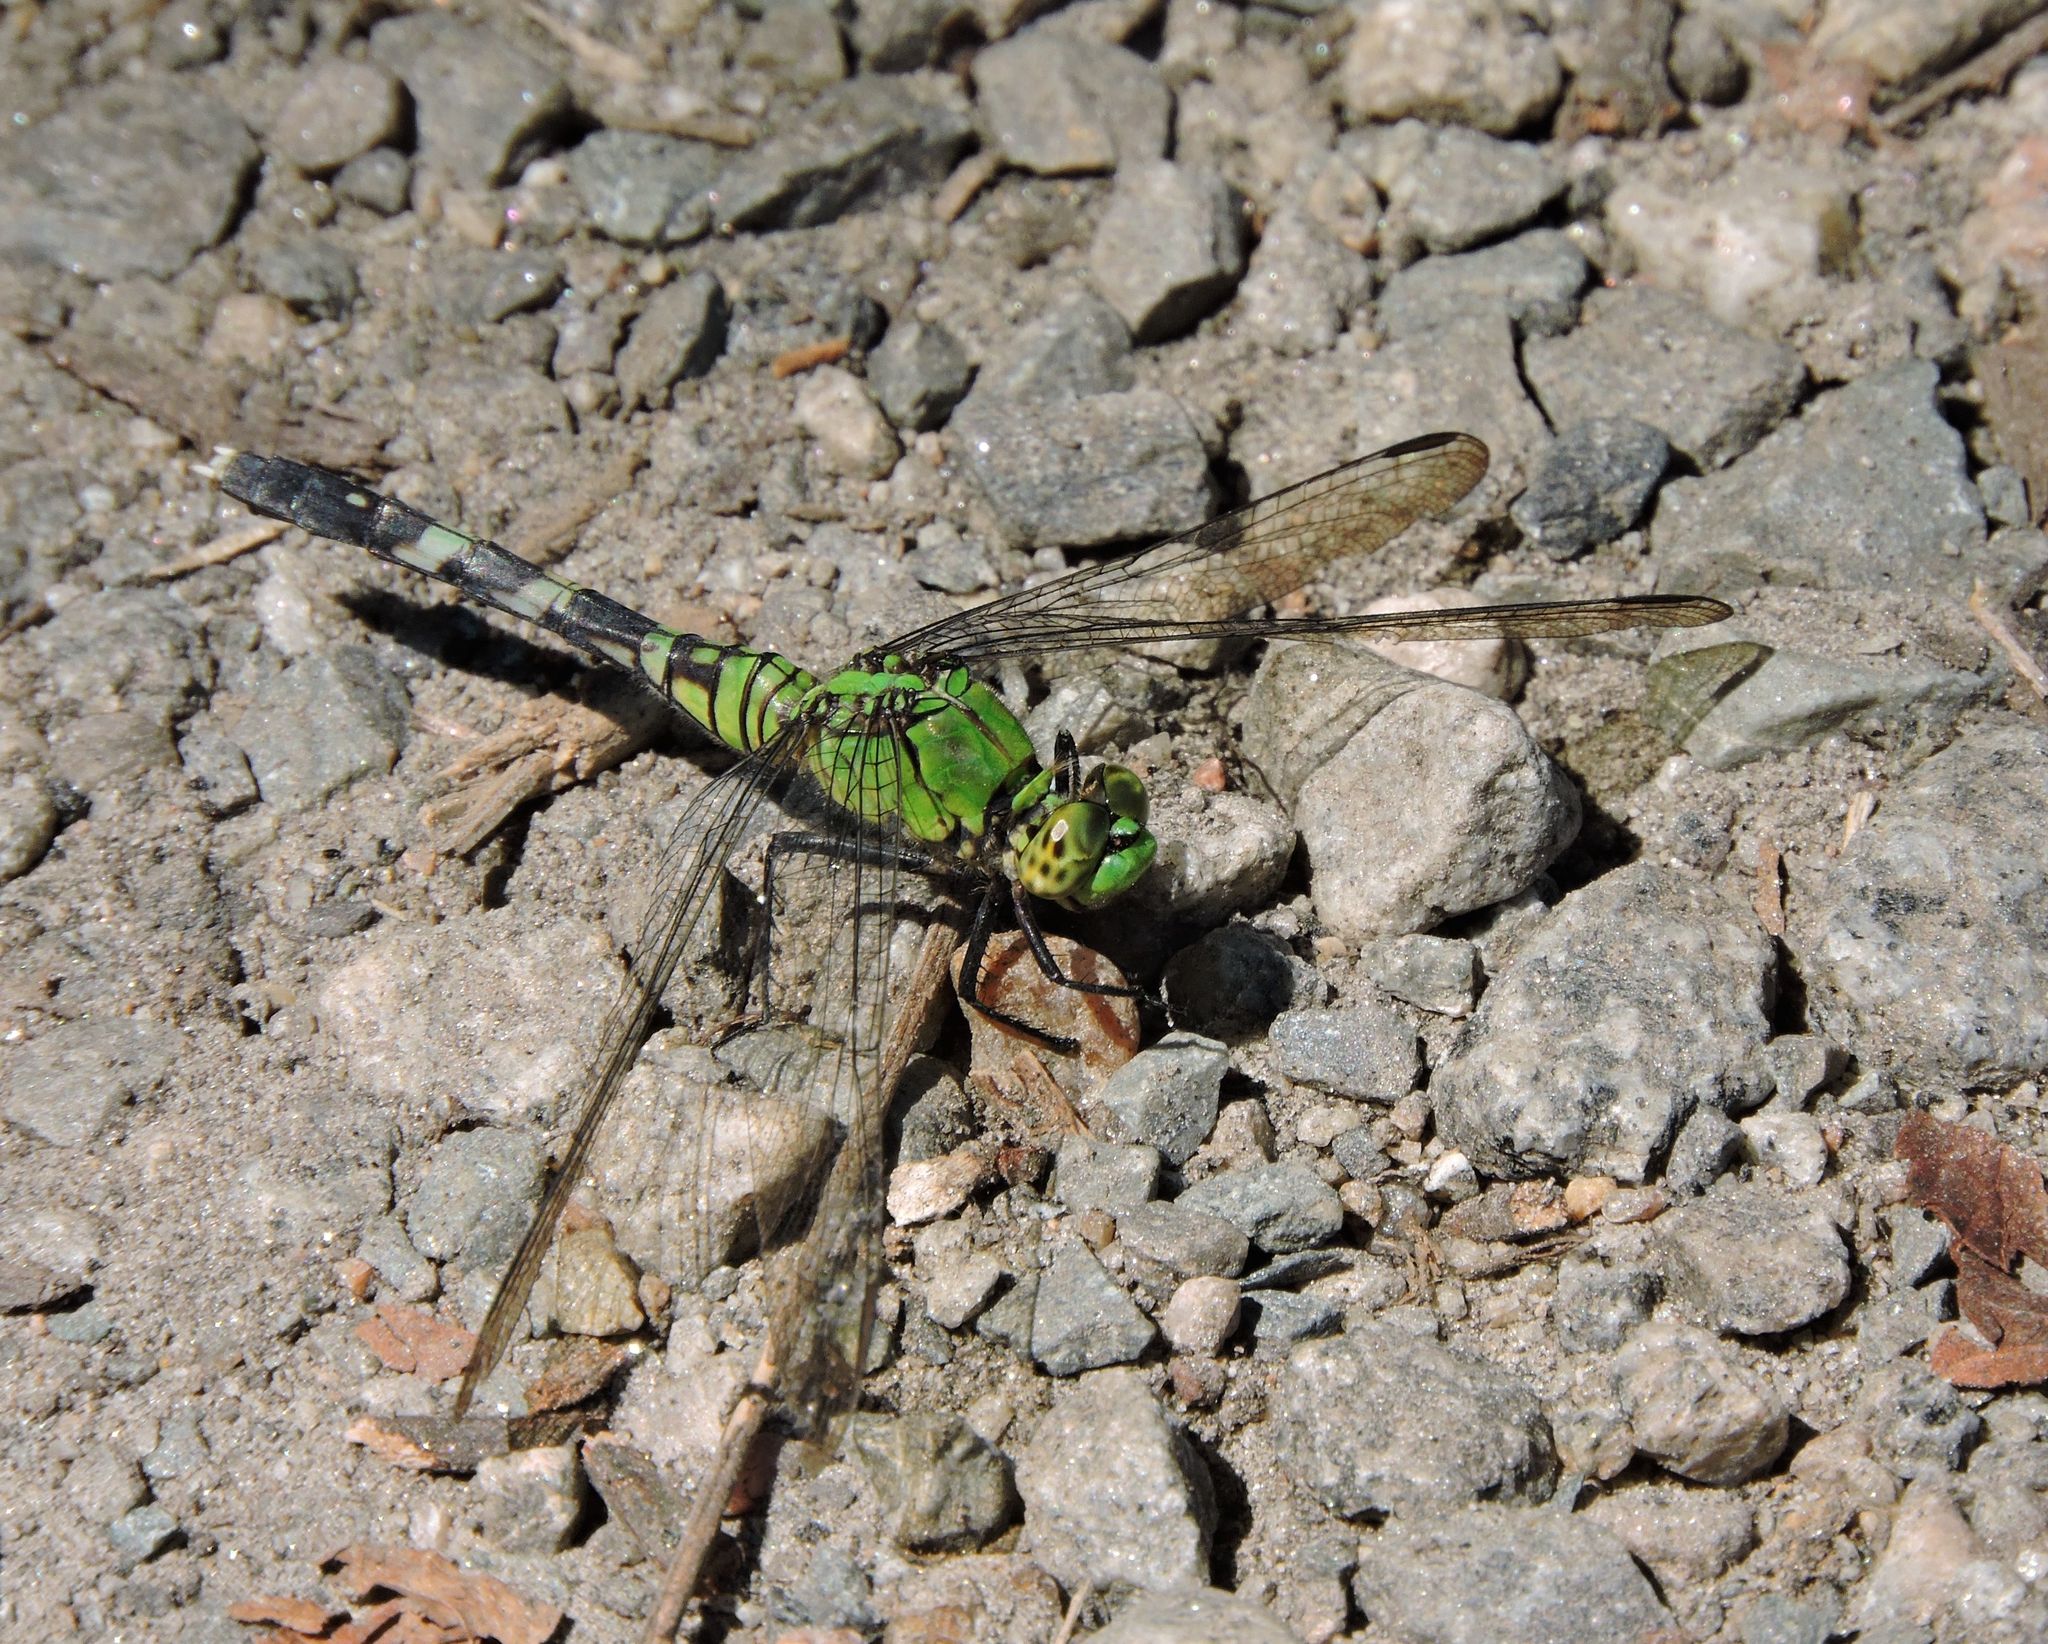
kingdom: Animalia
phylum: Arthropoda
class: Insecta
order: Odonata
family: Libellulidae
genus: Erythemis
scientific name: Erythemis simplicicollis
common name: Eastern pondhawk
